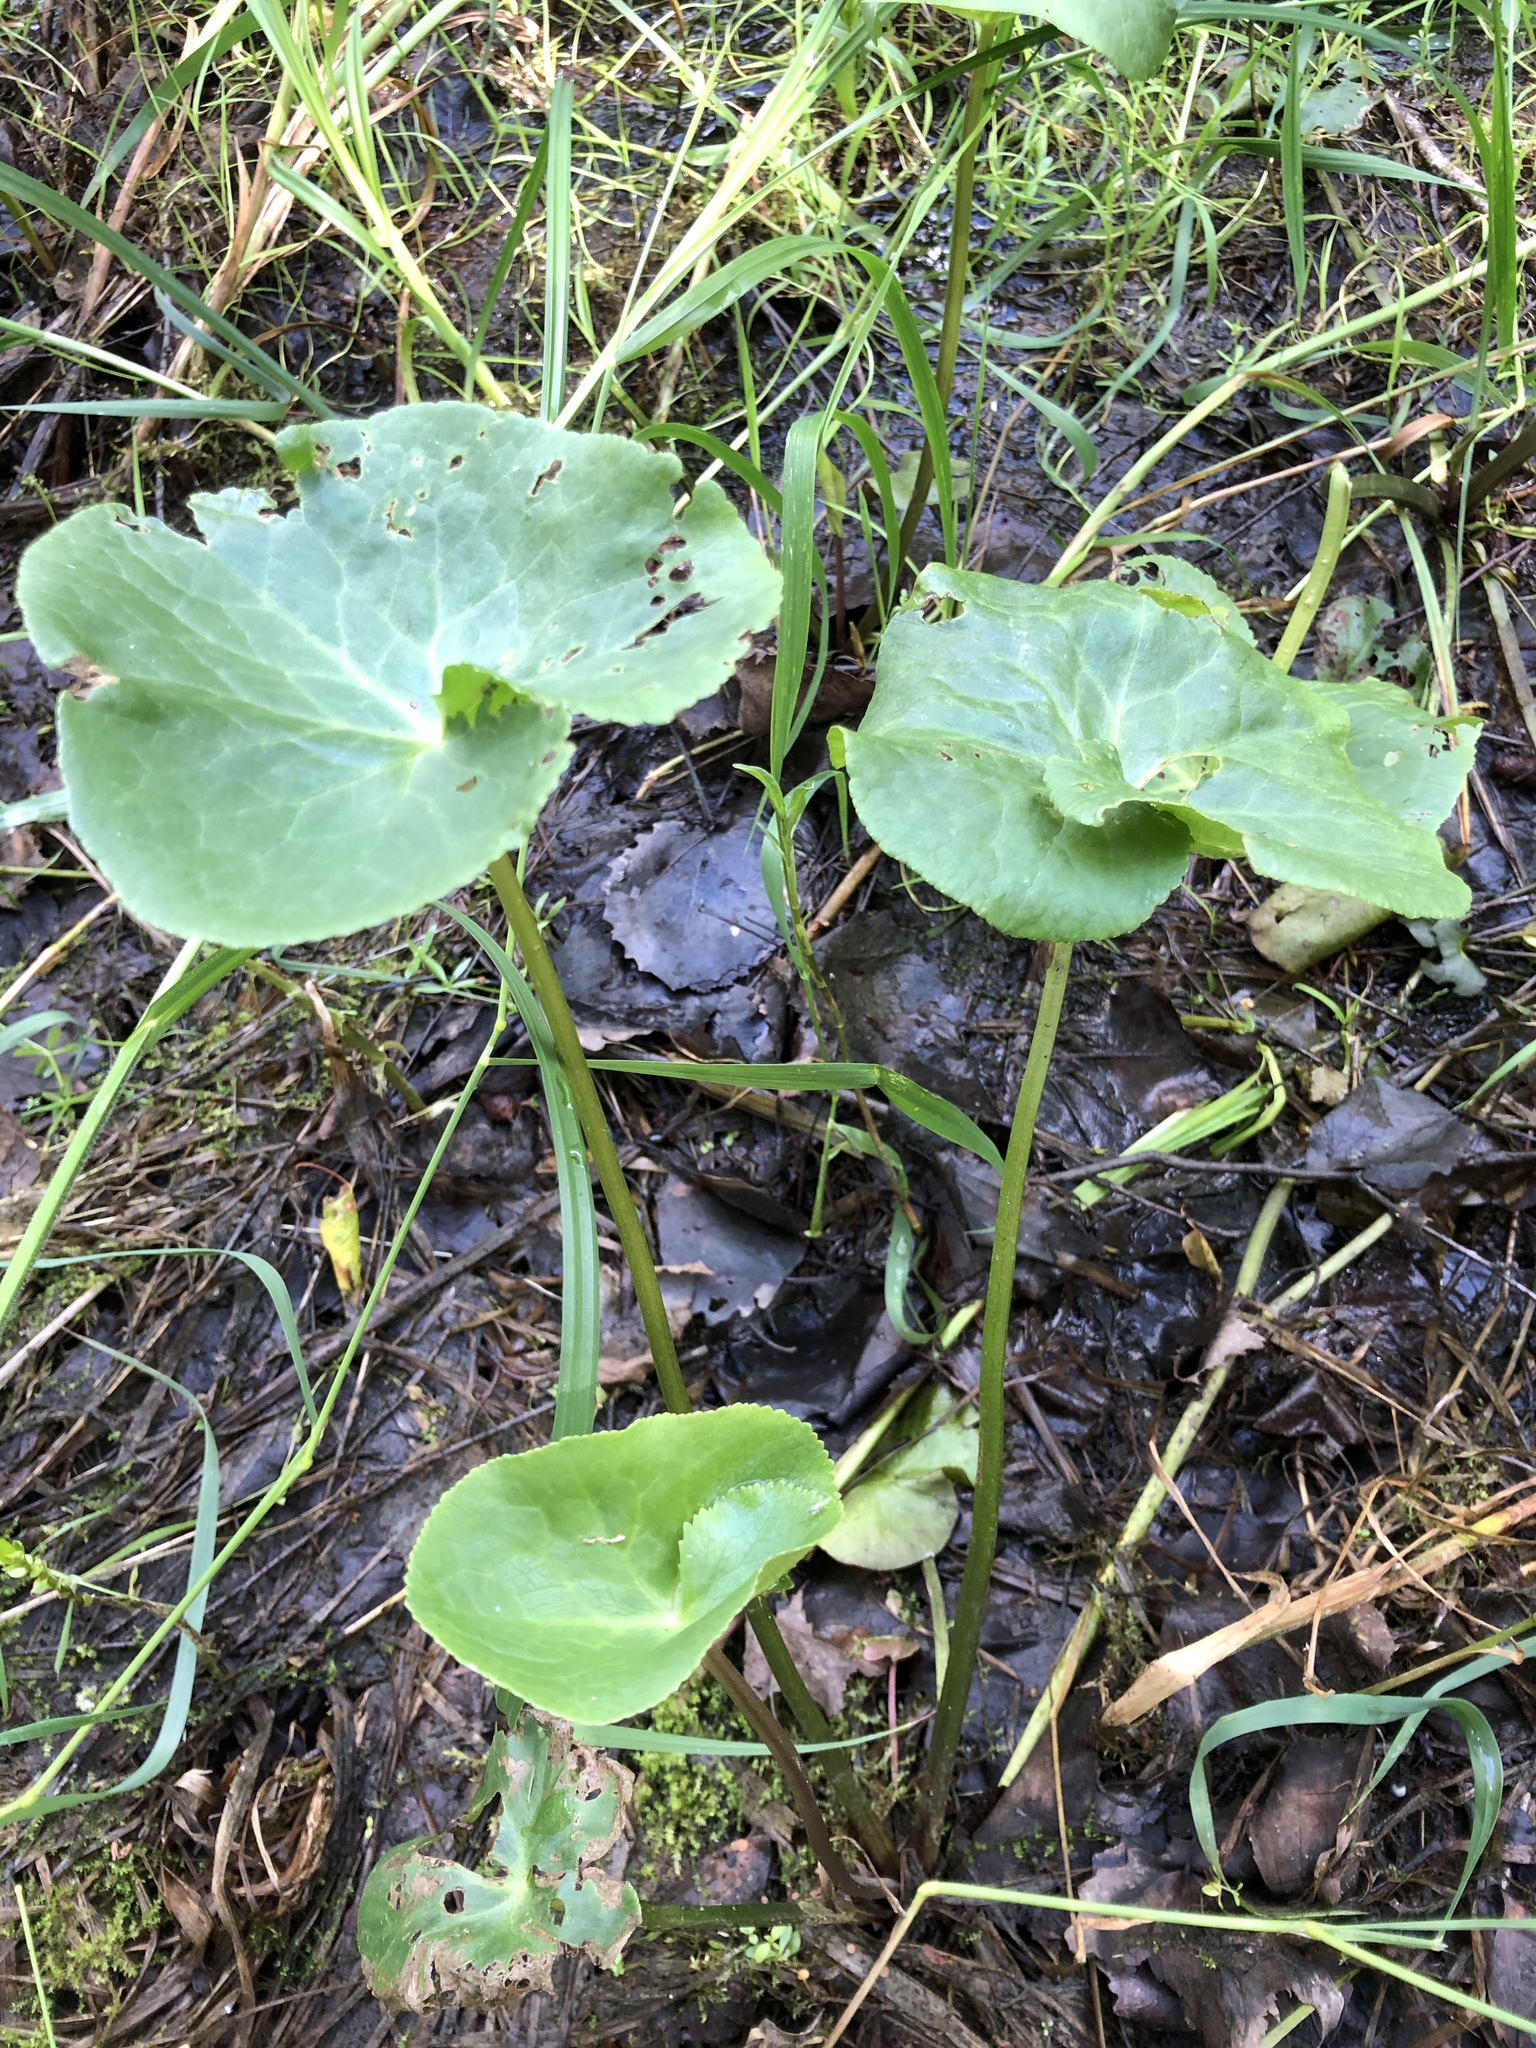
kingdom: Plantae
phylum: Tracheophyta
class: Magnoliopsida
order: Ranunculales
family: Ranunculaceae
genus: Caltha
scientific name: Caltha palustris
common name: Marsh marigold
